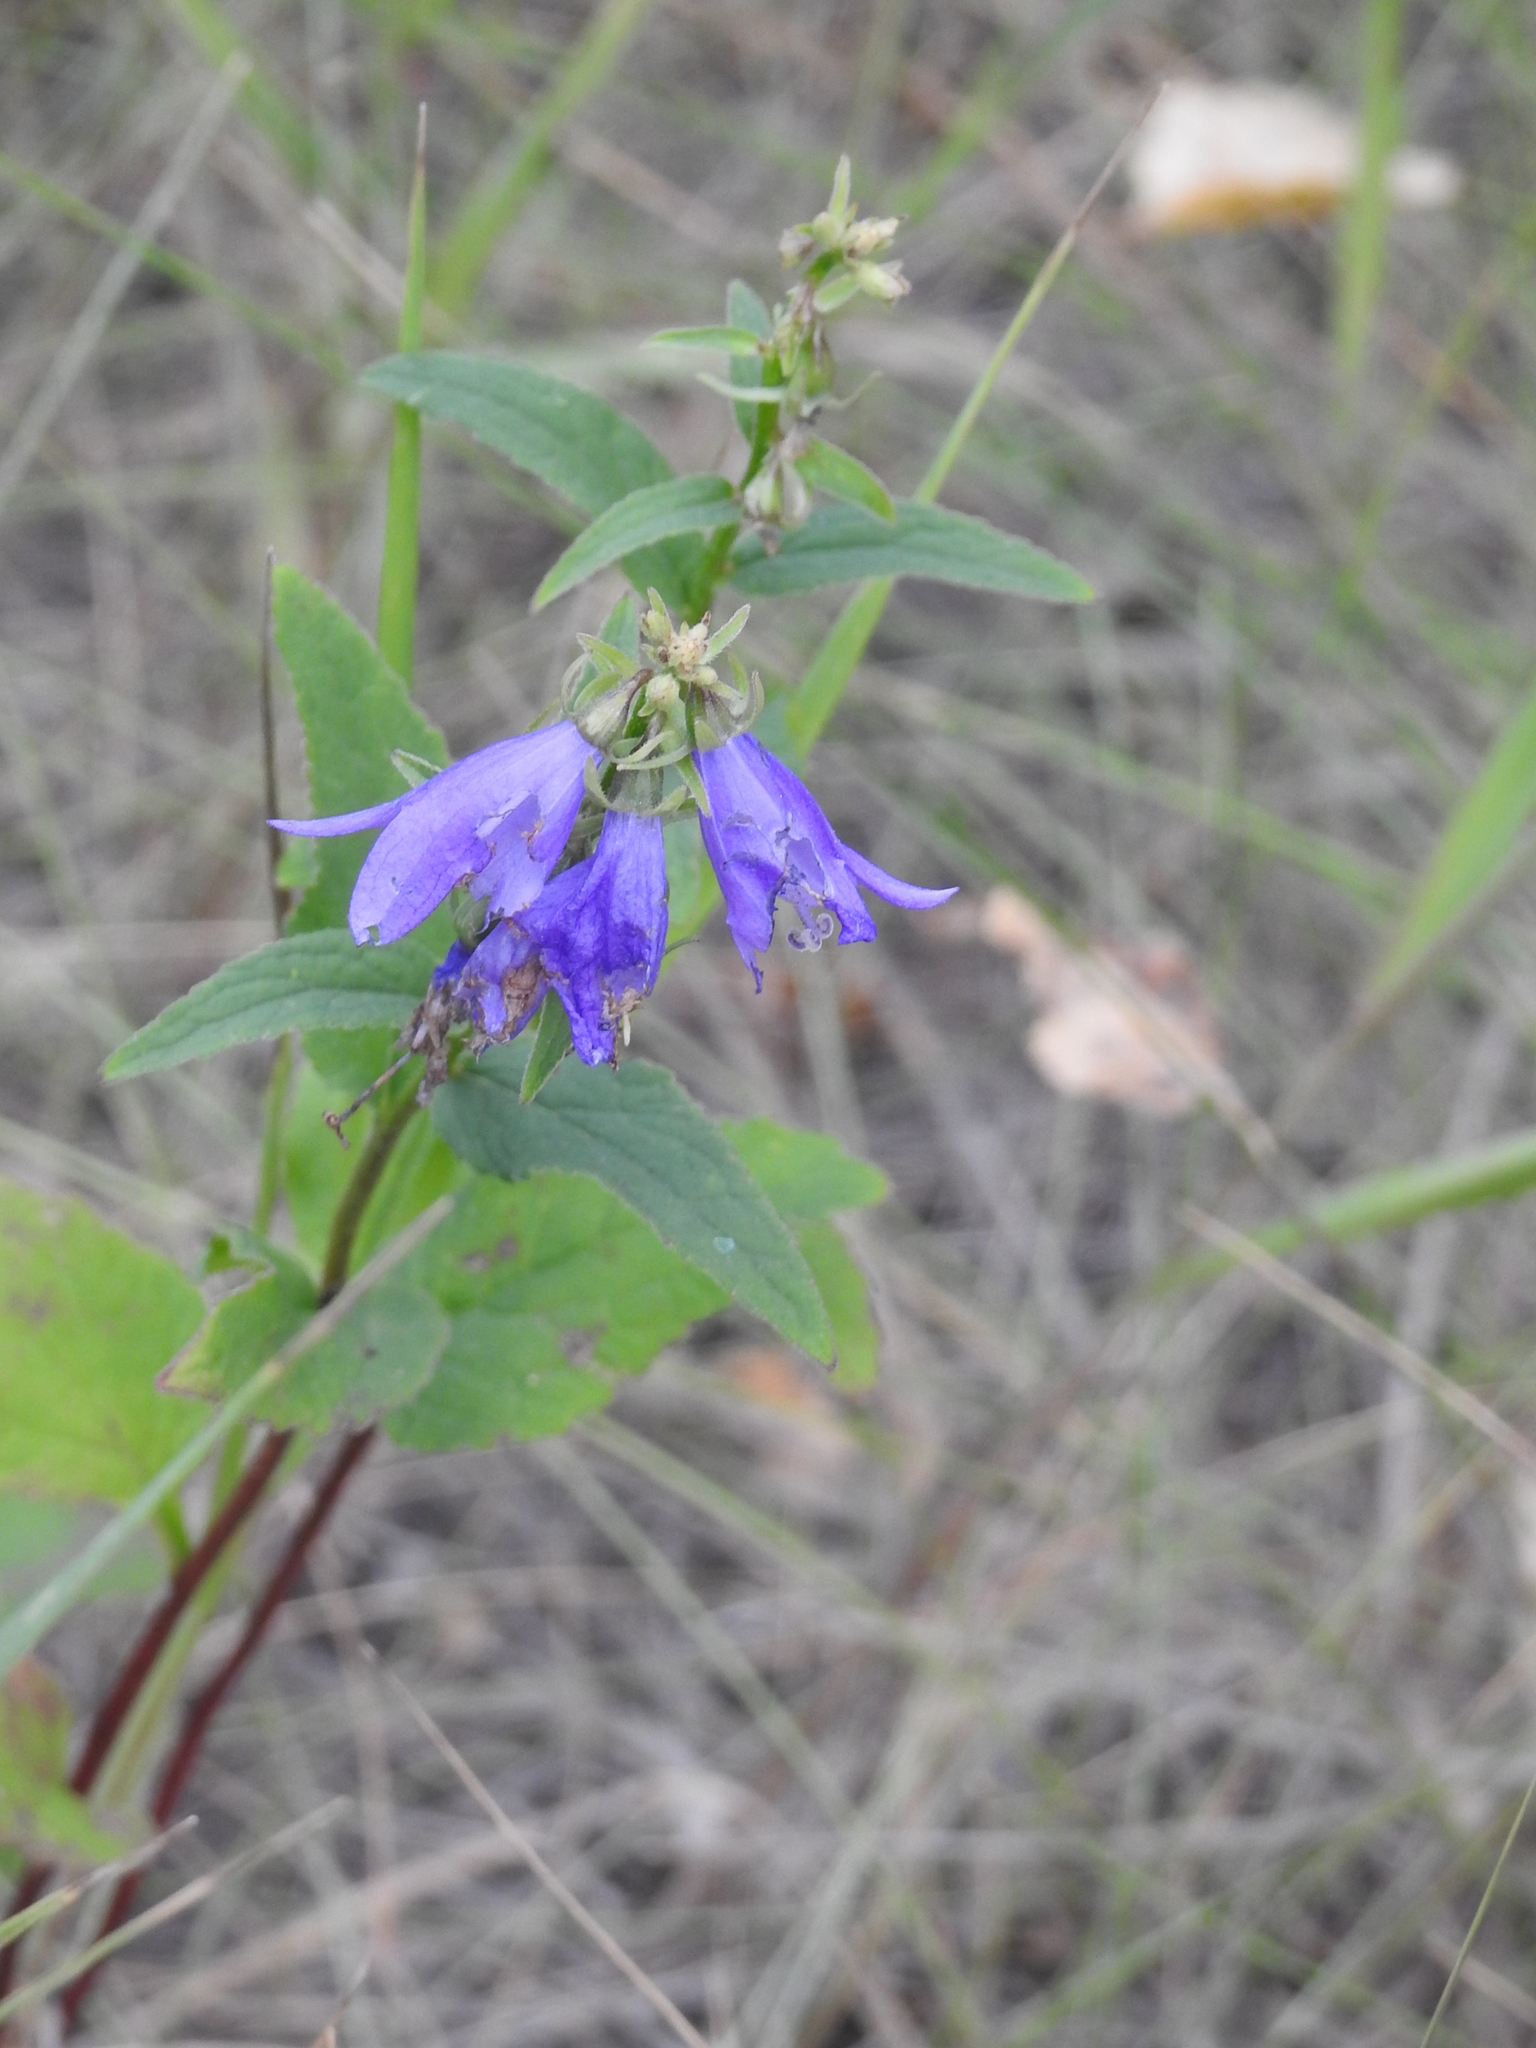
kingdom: Plantae
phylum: Tracheophyta
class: Magnoliopsida
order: Asterales
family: Campanulaceae
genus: Campanula
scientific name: Campanula rapunculoides
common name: Creeping bellflower
